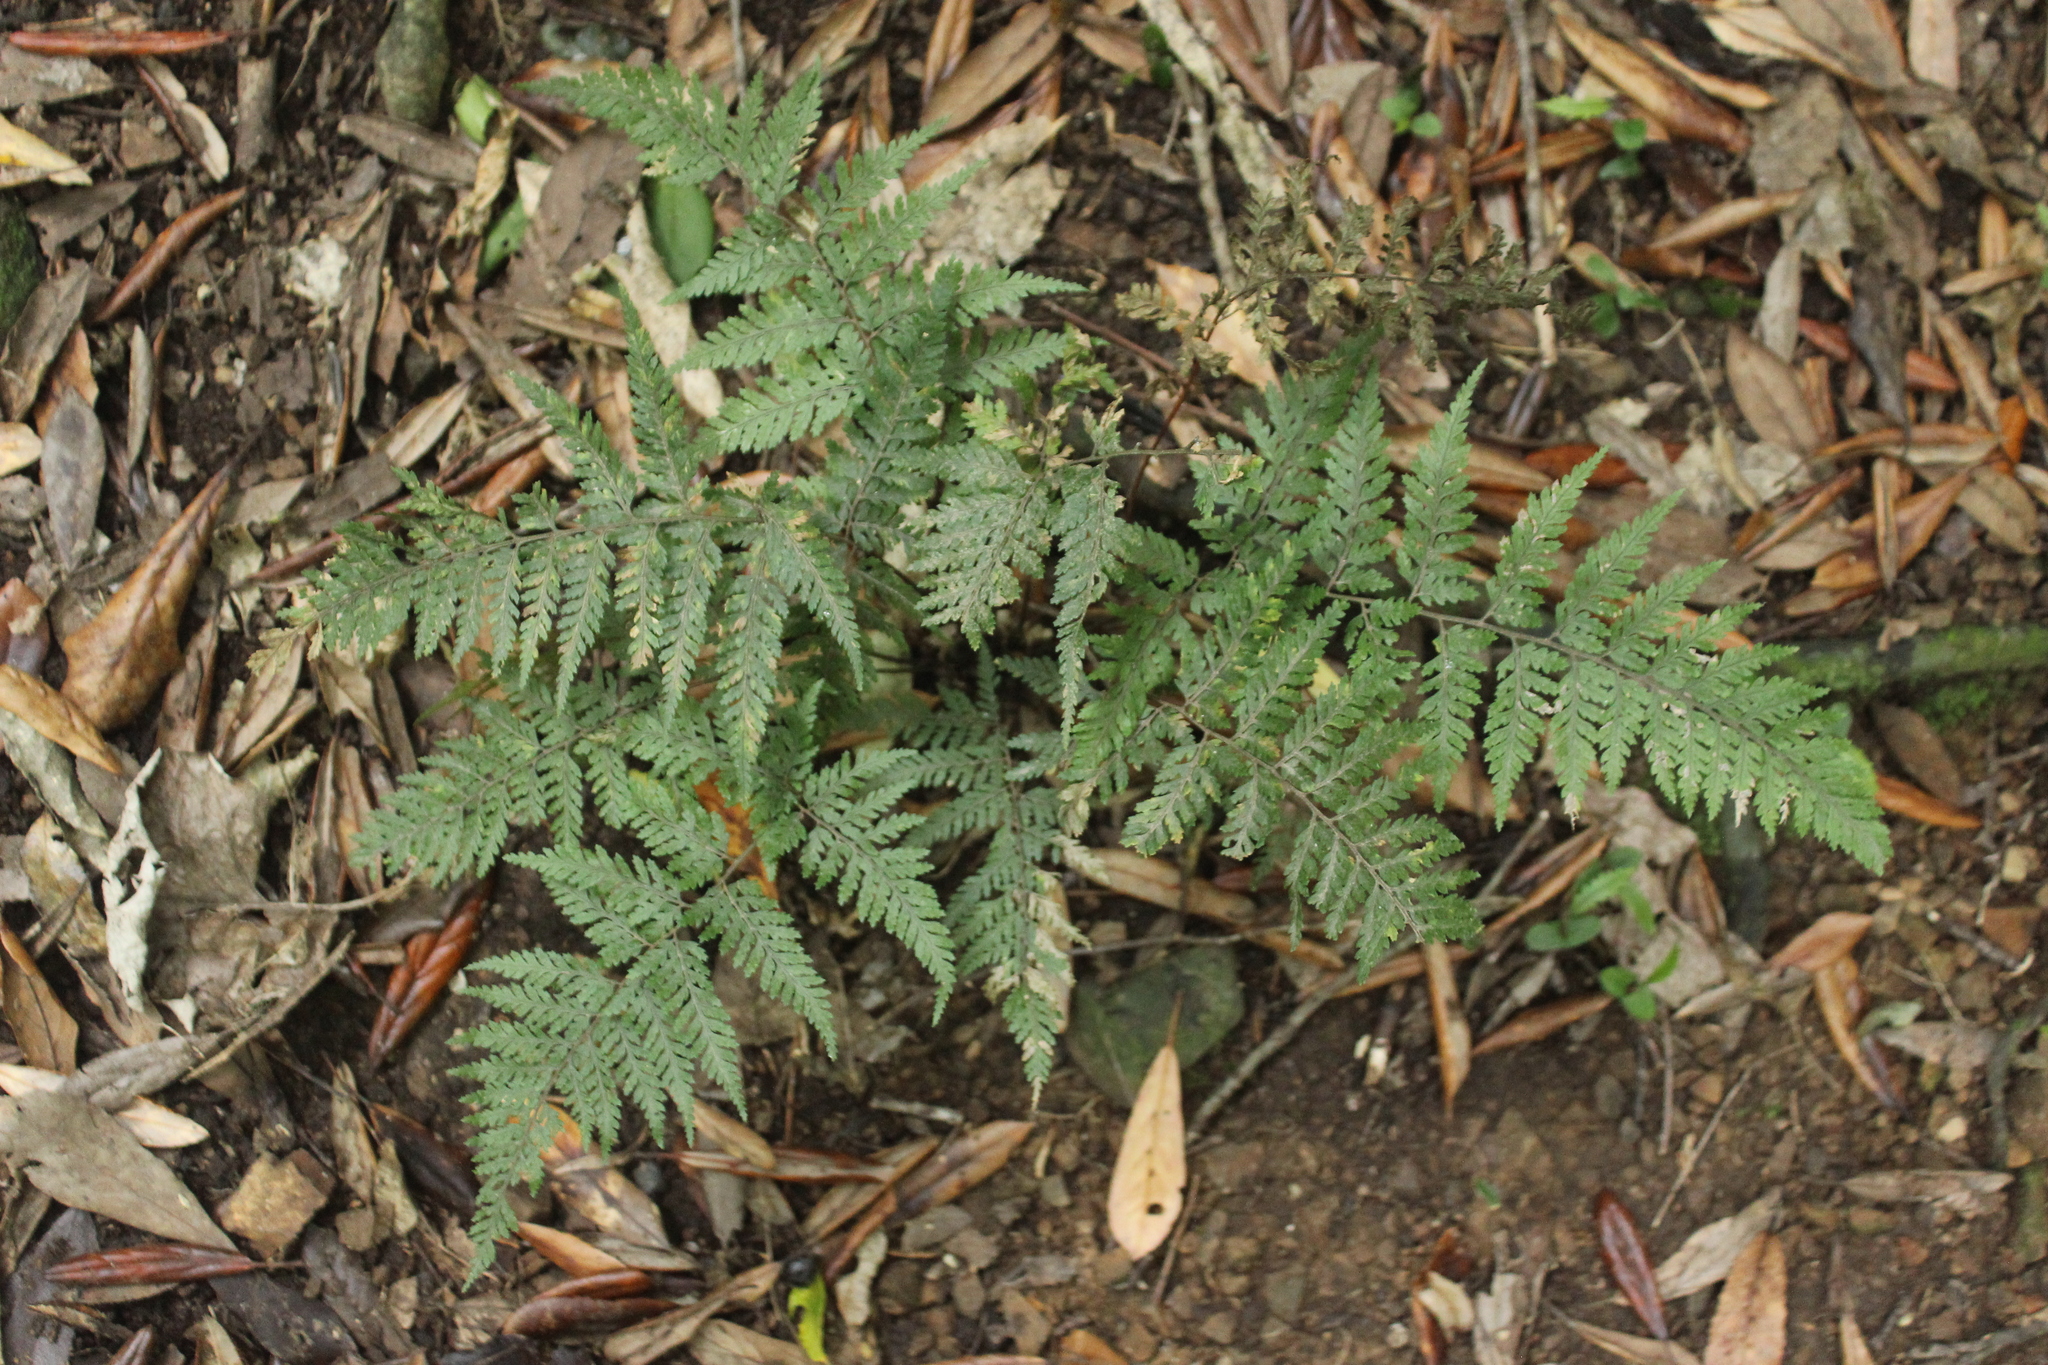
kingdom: Plantae
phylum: Tracheophyta
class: Polypodiopsida
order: Polypodiales
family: Dryopteridaceae
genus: Parapolystichum
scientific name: Parapolystichum glabellum
